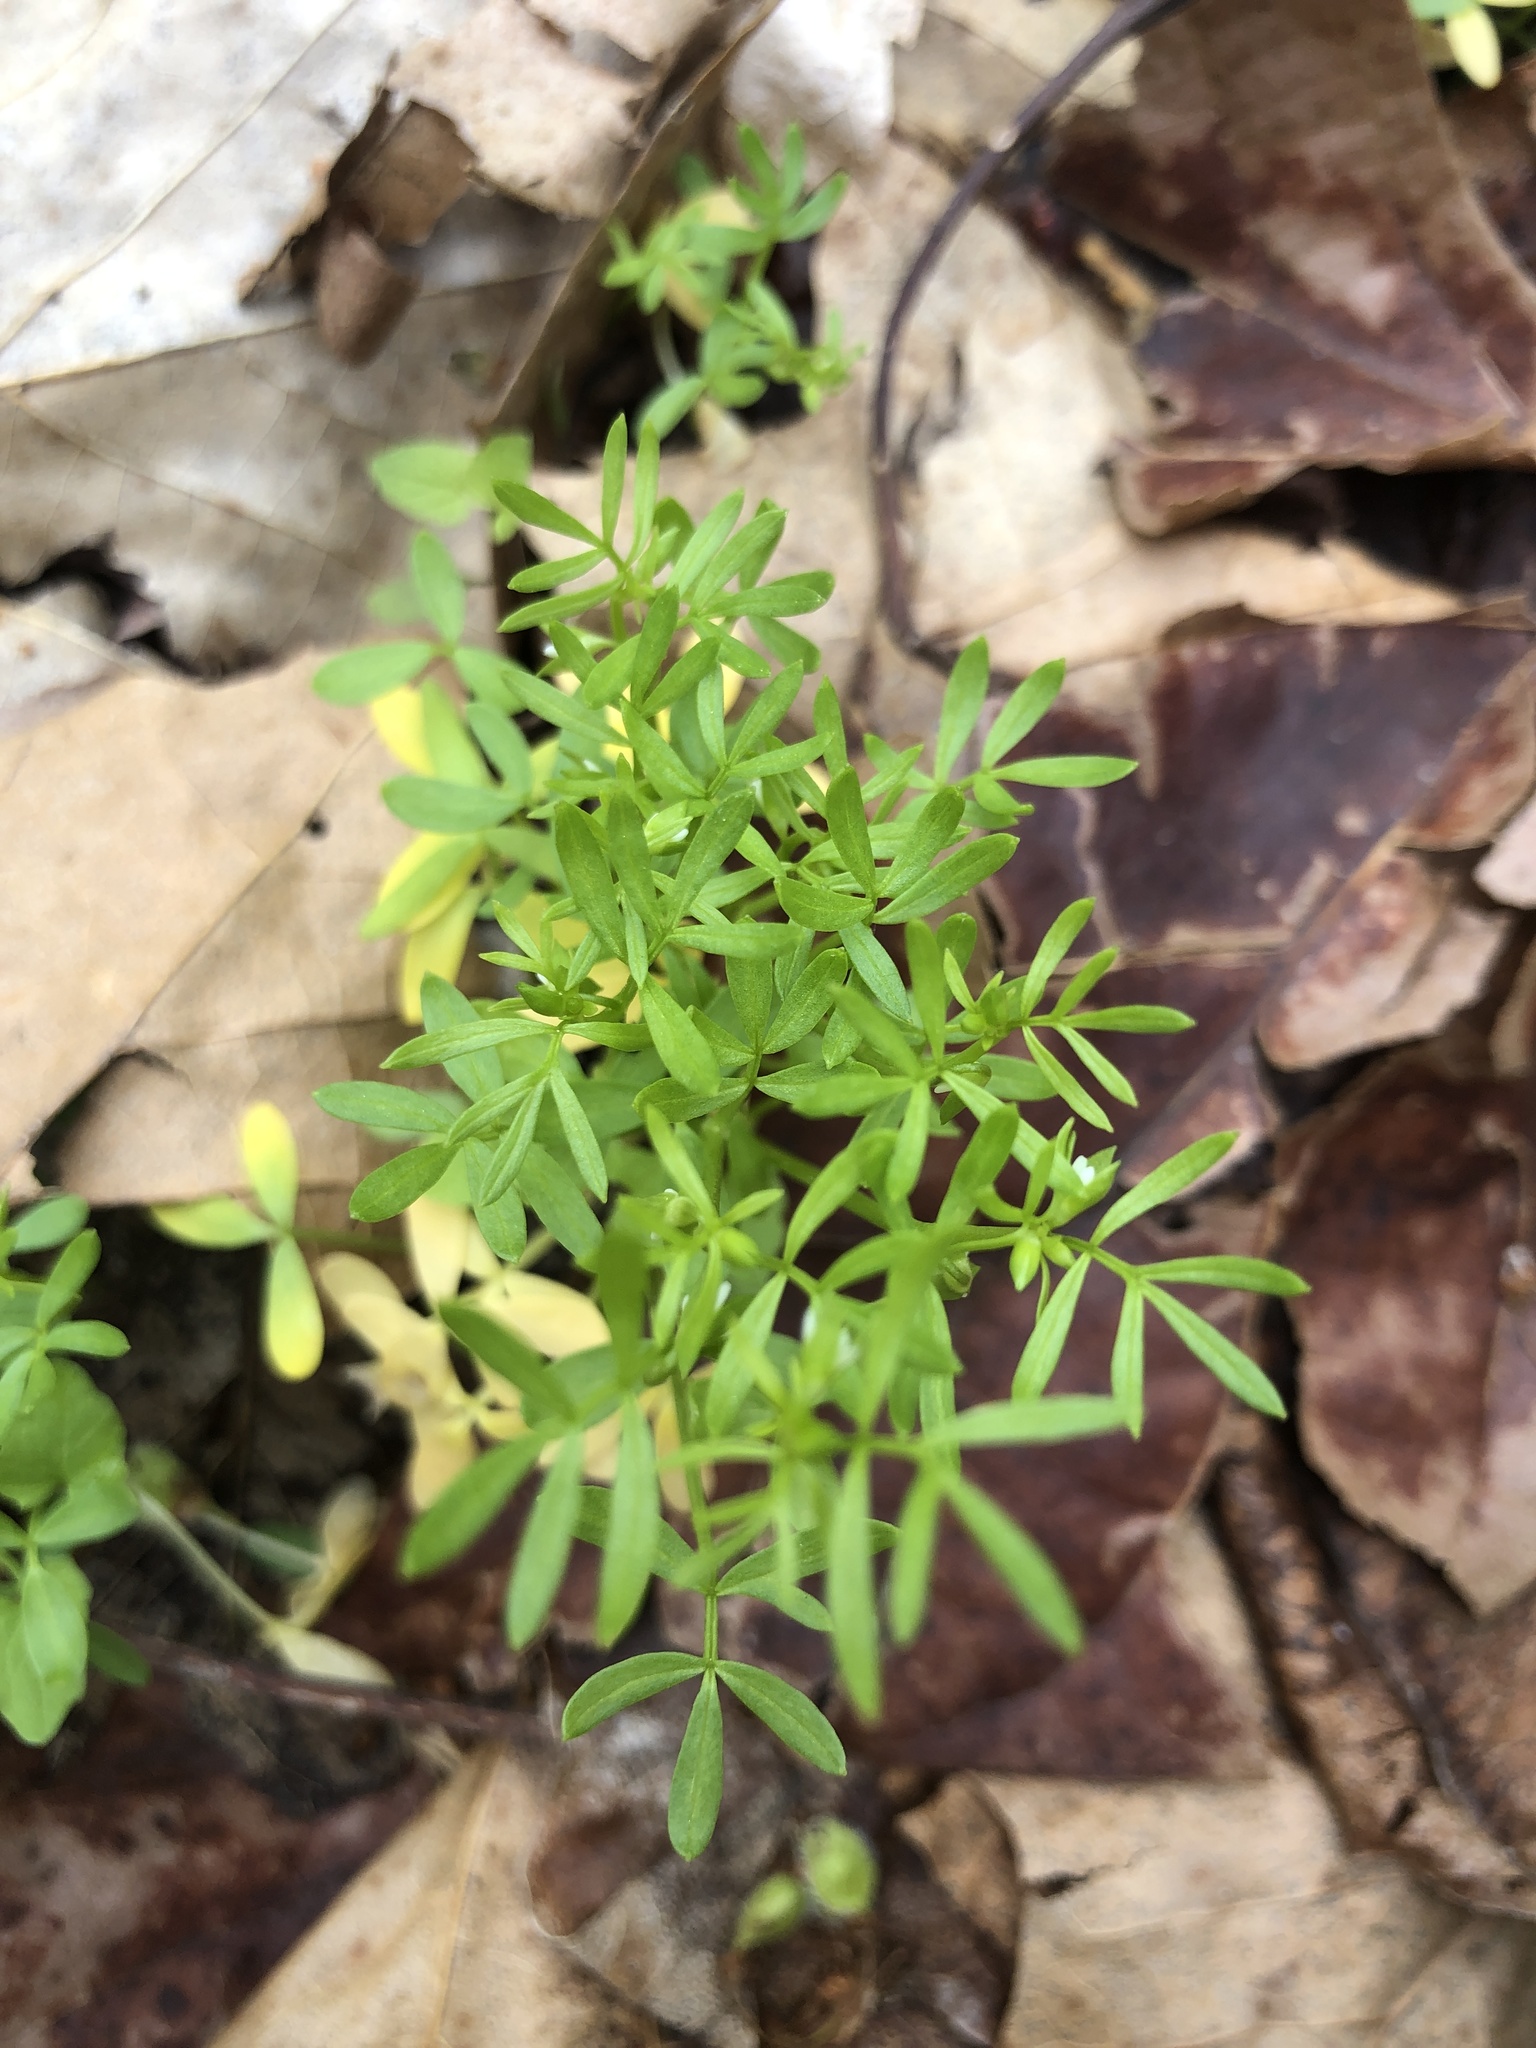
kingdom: Plantae
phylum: Tracheophyta
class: Magnoliopsida
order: Brassicales
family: Limnanthaceae
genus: Floerkea
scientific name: Floerkea proserpinacoides
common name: False mermaid
